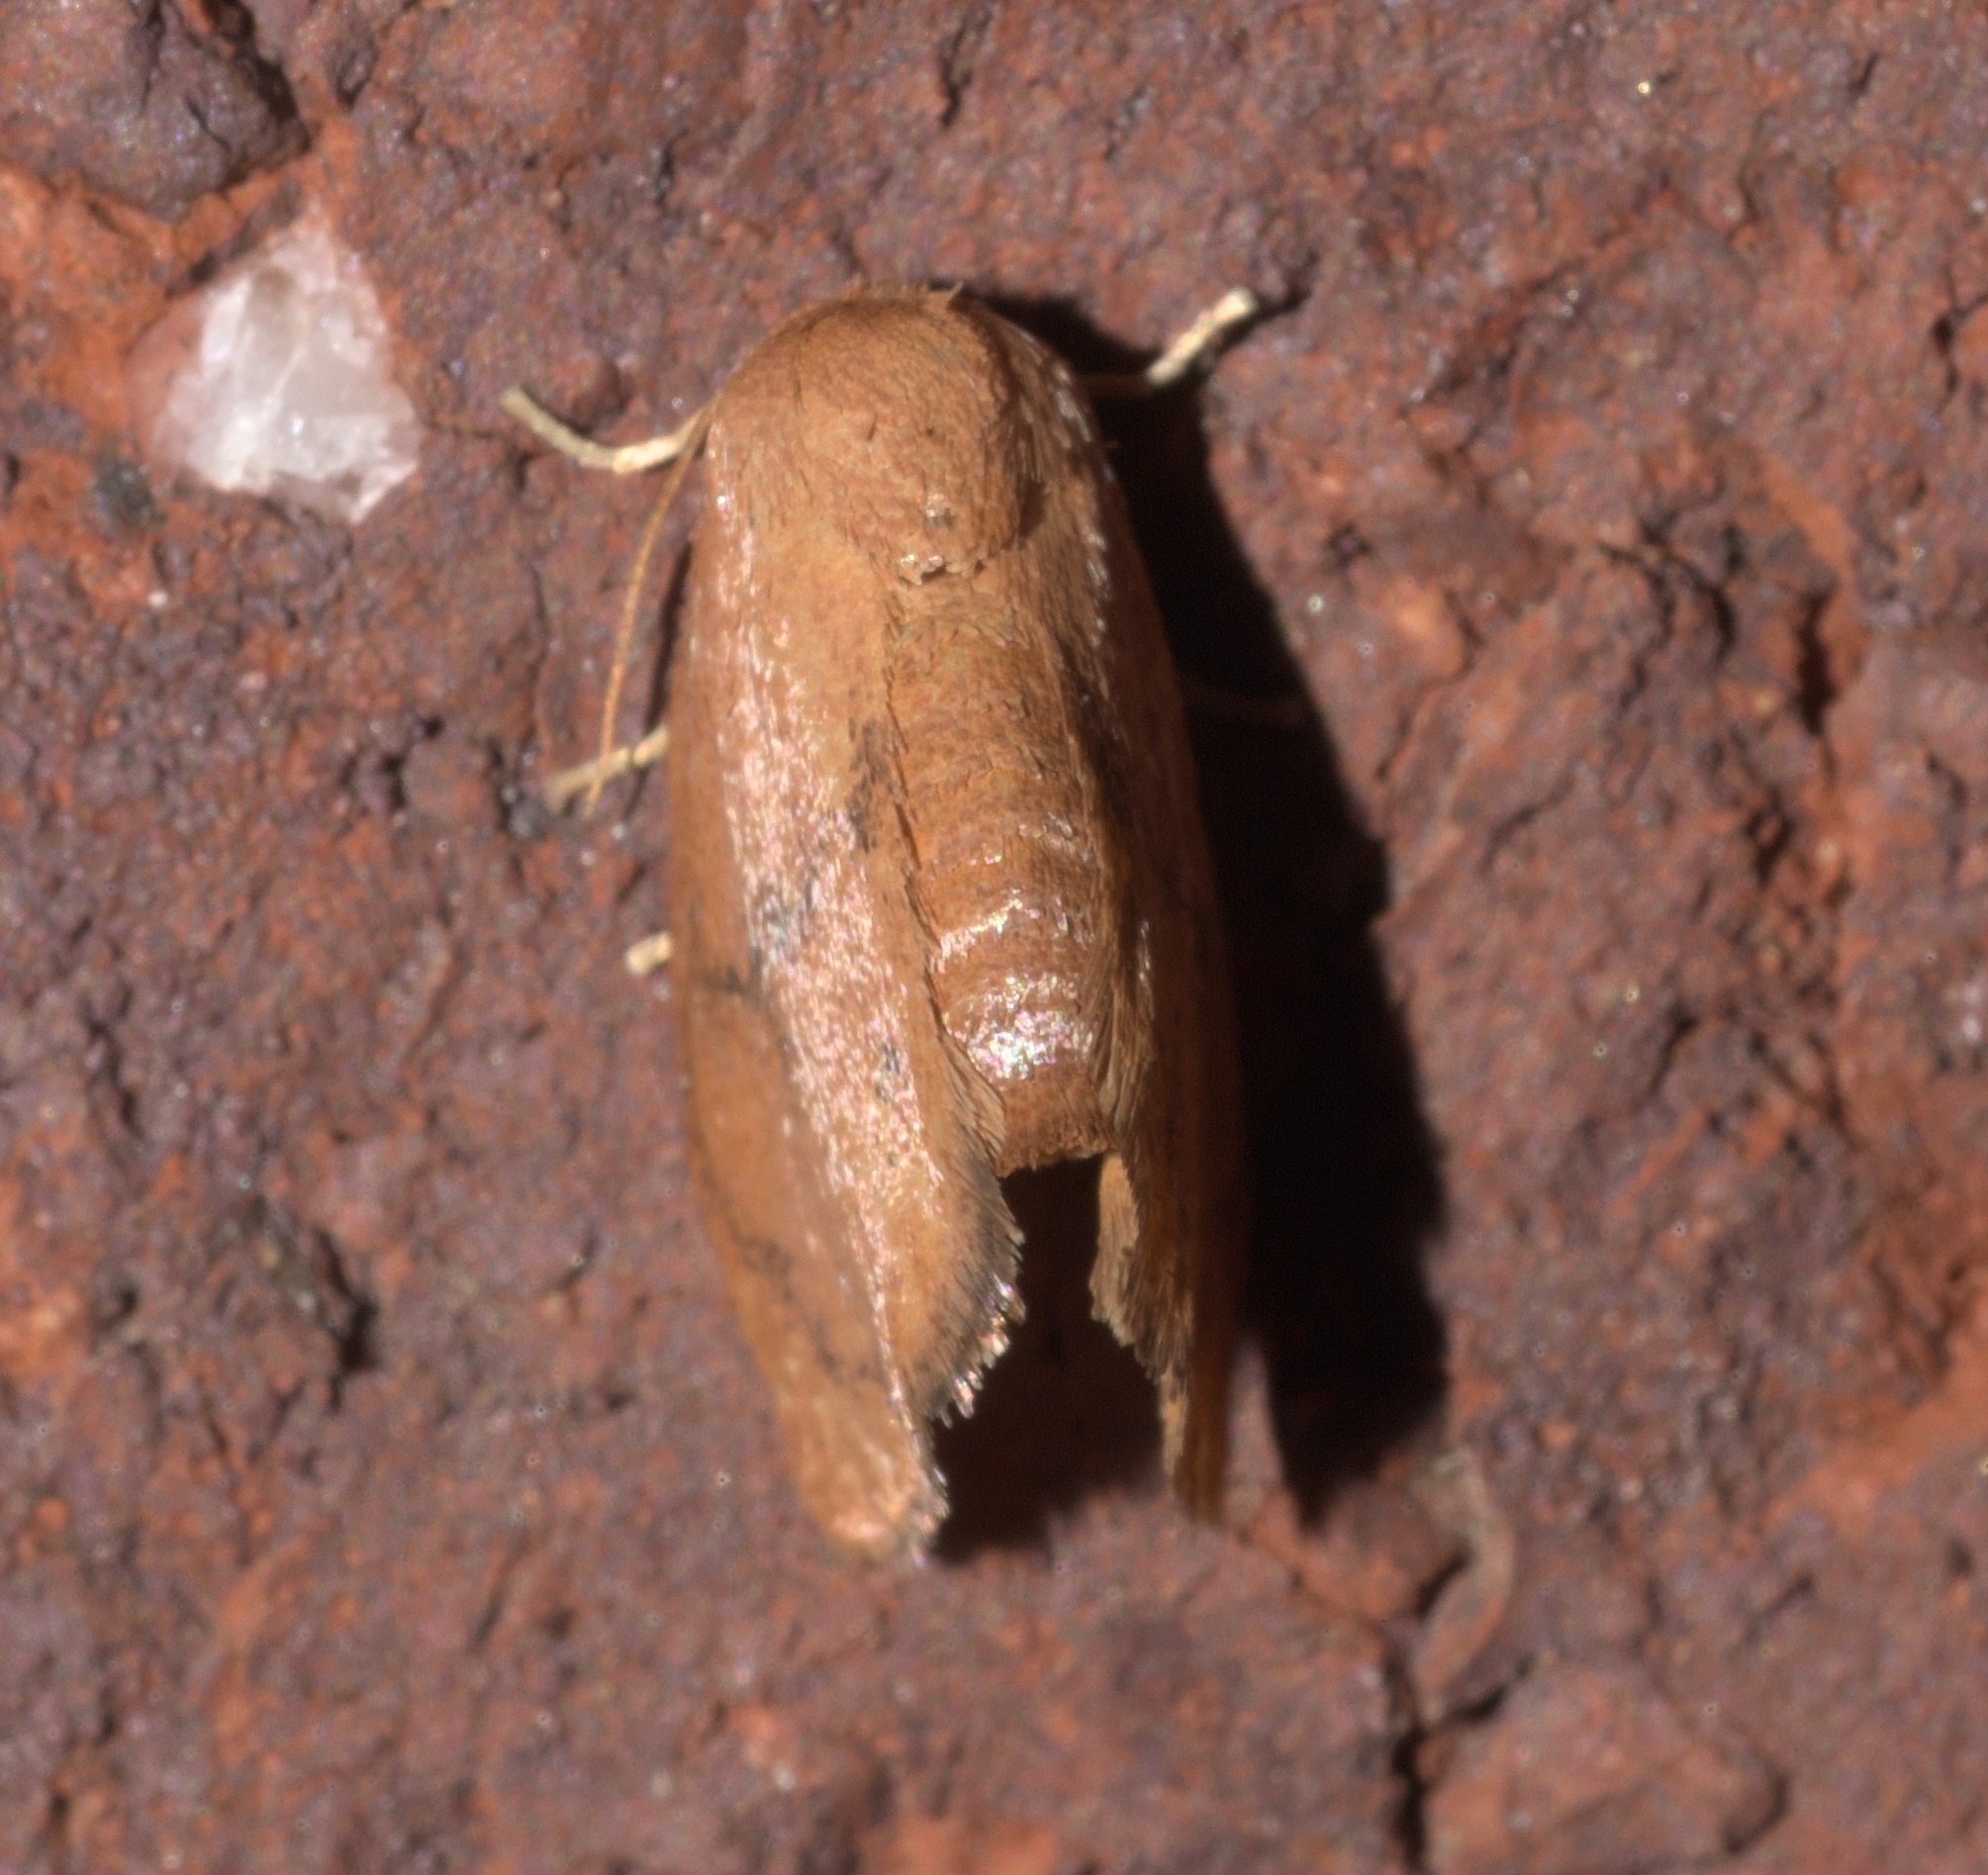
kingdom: Animalia
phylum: Arthropoda
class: Insecta
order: Lepidoptera
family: Limacodidae
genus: Heterogenea
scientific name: Heterogenea shurtleffi
